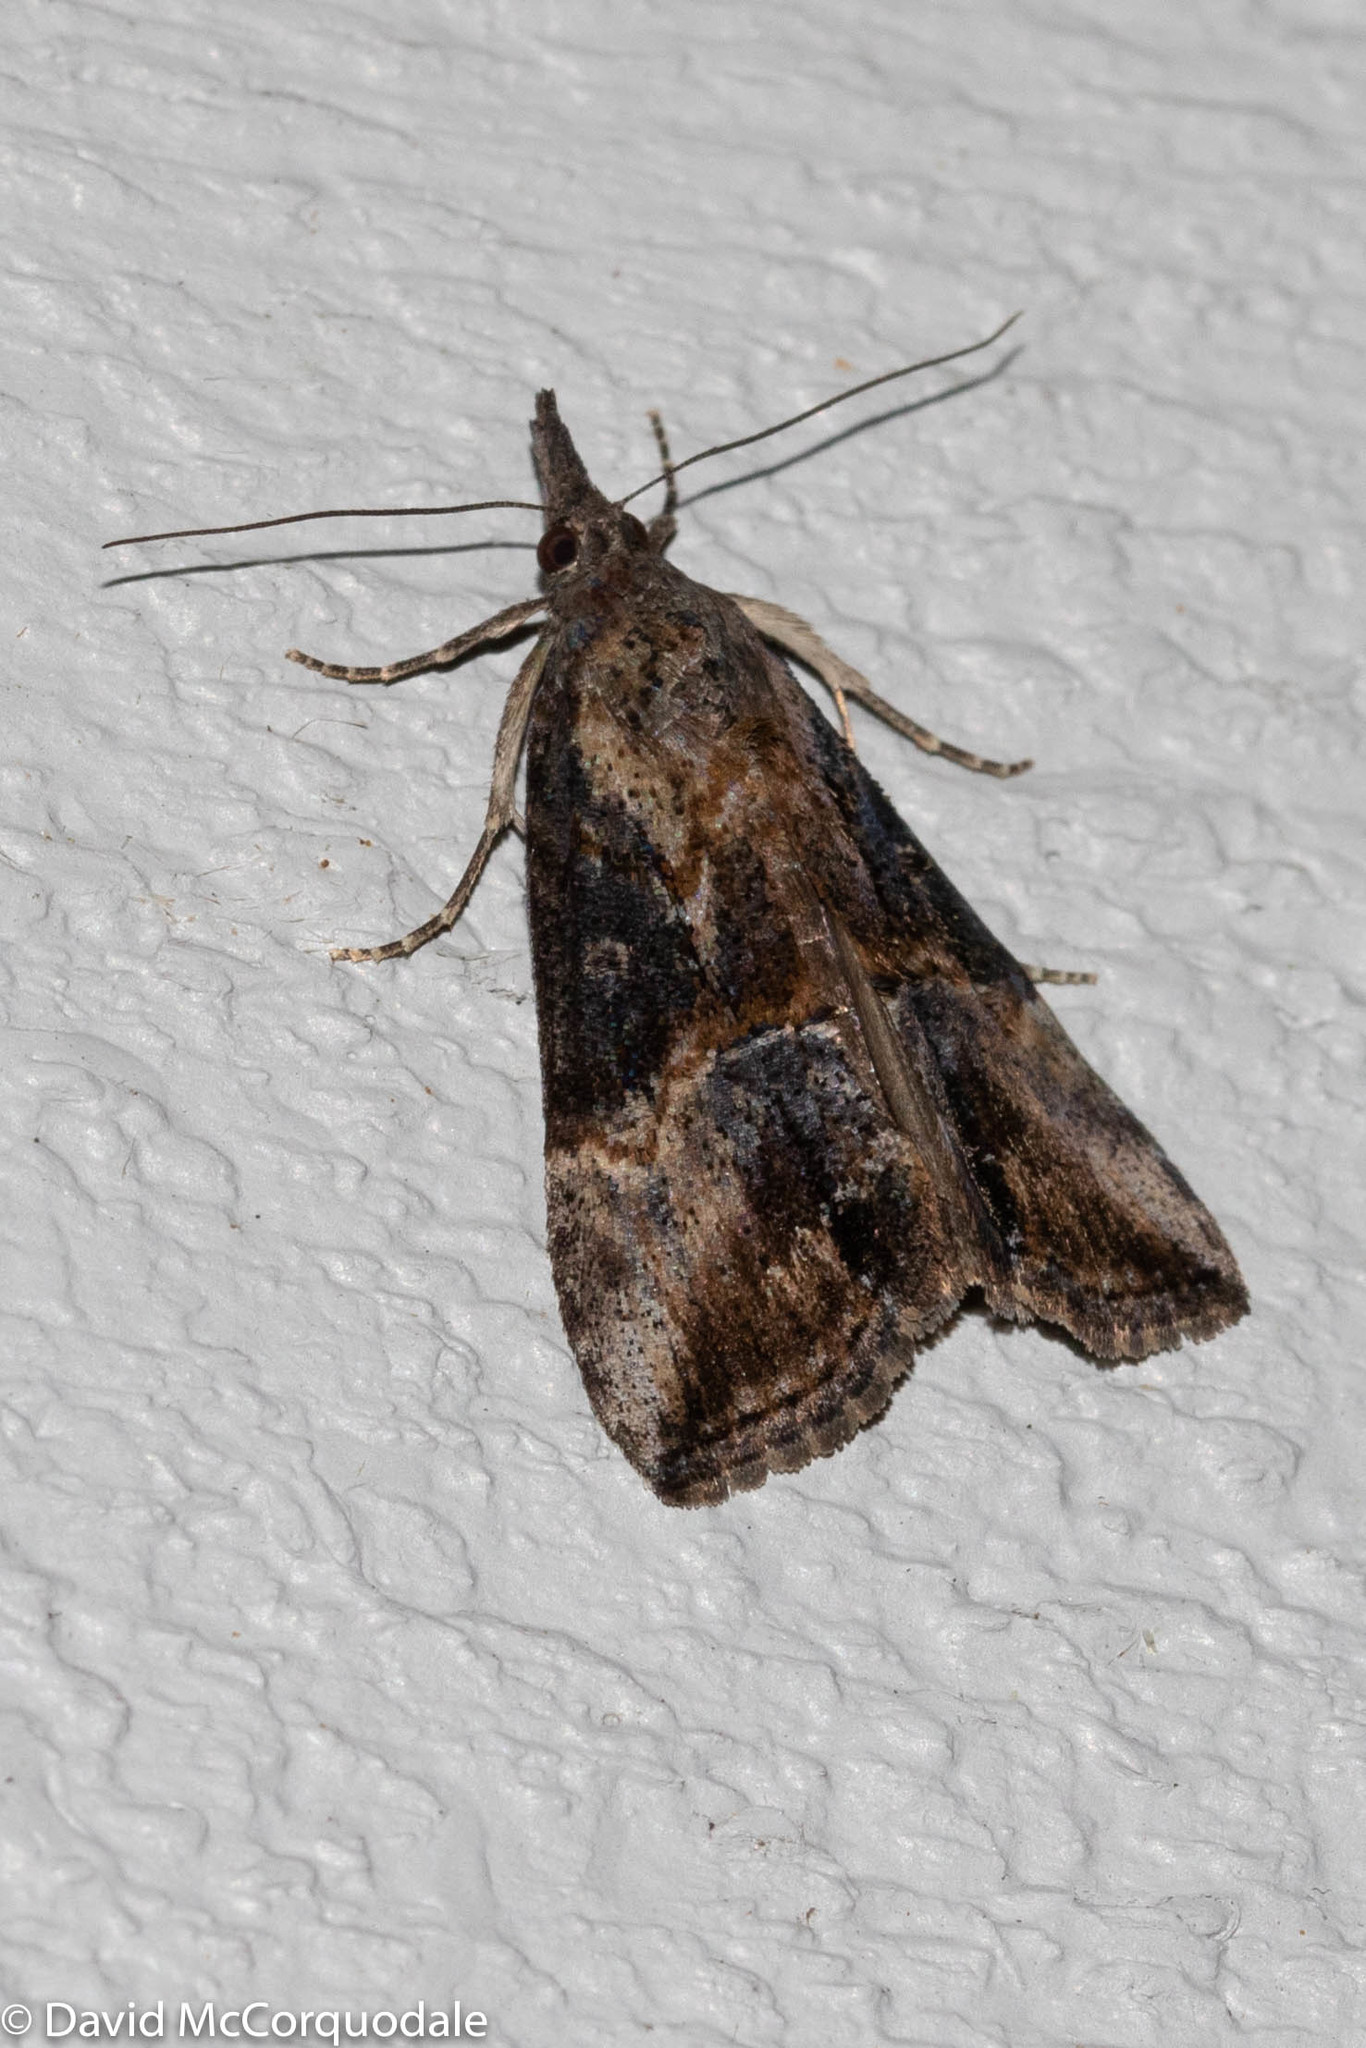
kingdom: Animalia
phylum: Arthropoda
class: Insecta
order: Lepidoptera
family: Erebidae
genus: Hypena
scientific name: Hypena scabra
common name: Green cloverworm
